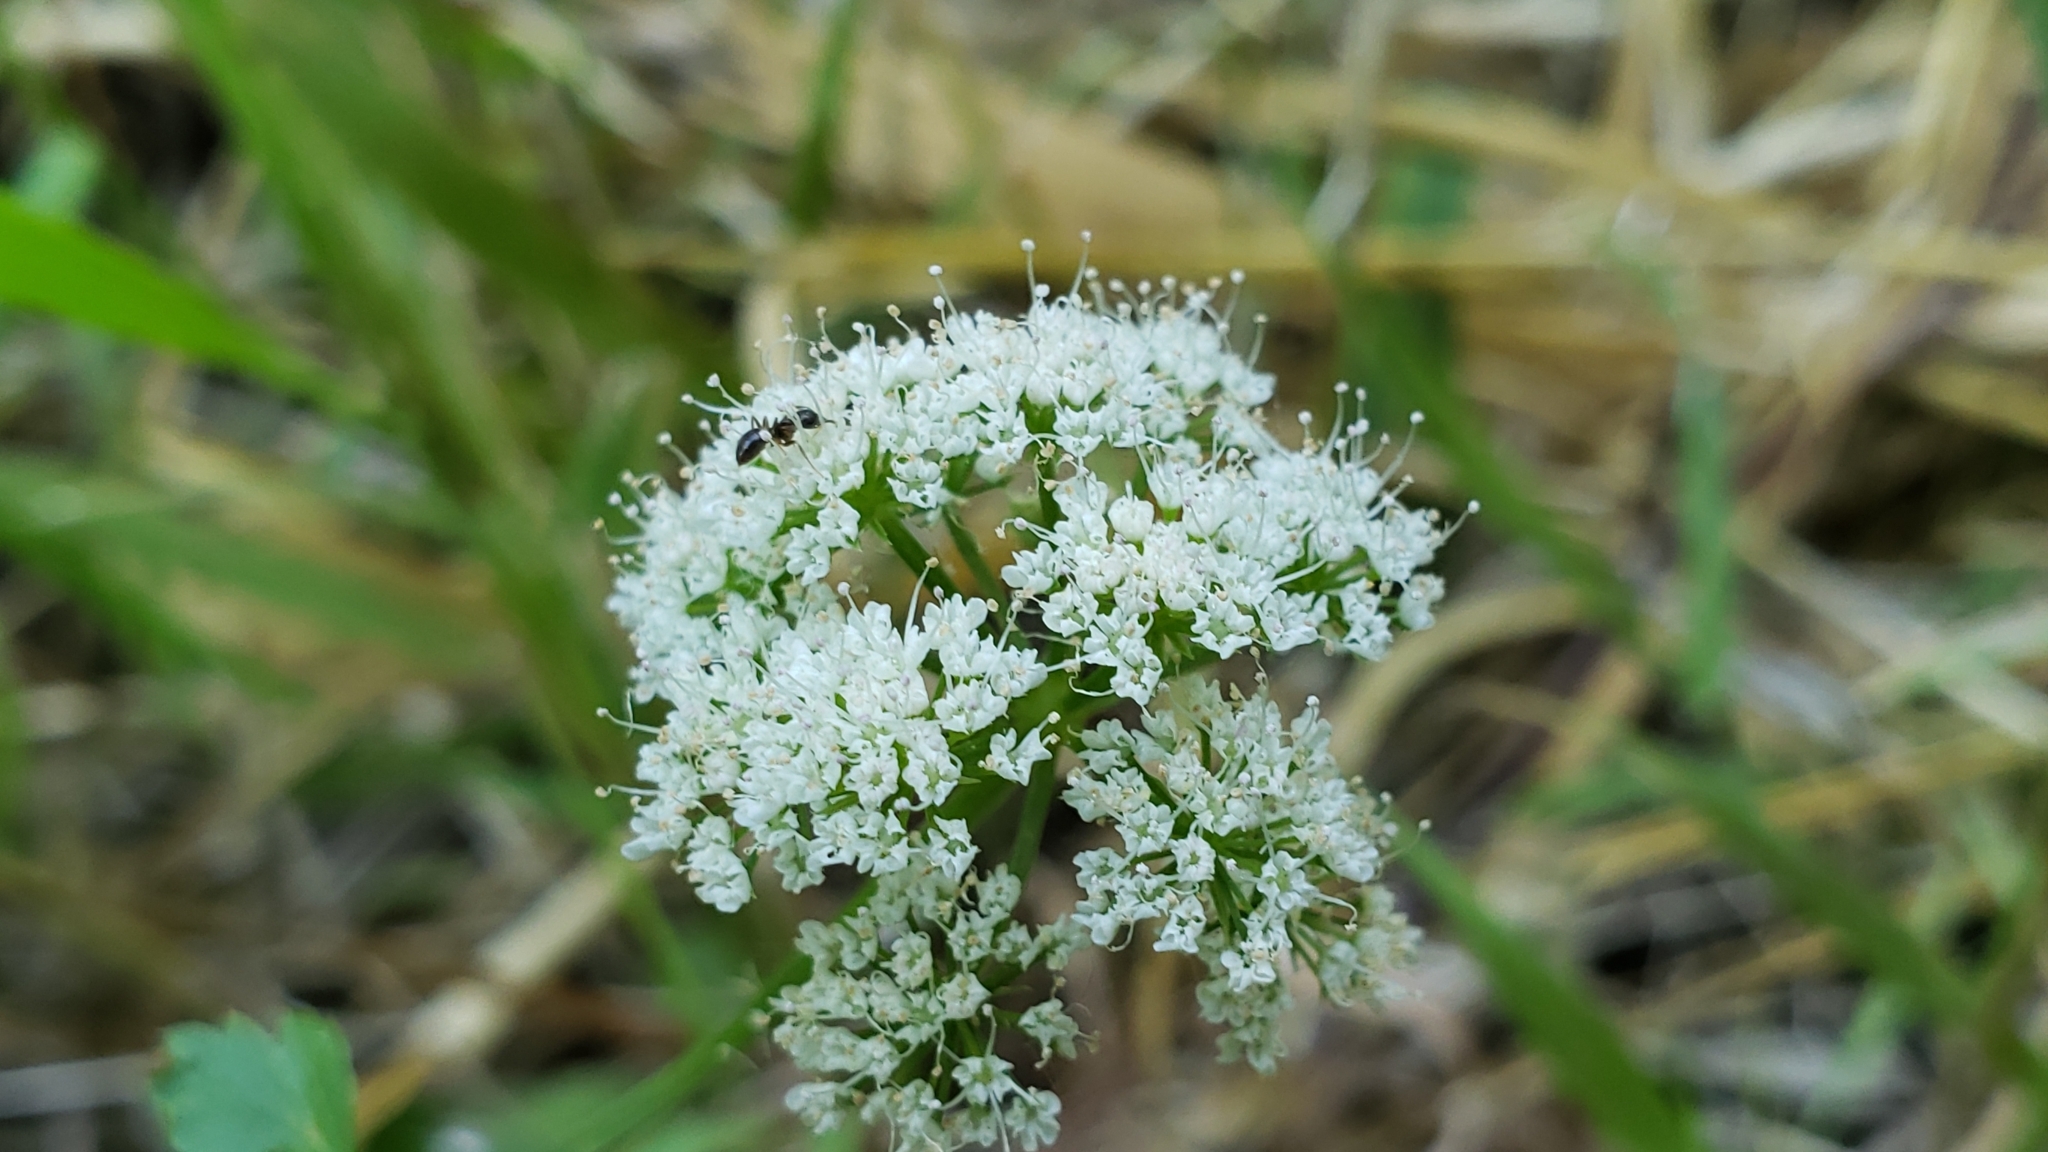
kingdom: Plantae
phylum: Tracheophyta
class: Magnoliopsida
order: Apiales
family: Apiaceae
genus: Oenanthe
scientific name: Oenanthe sarmentosa
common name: American water-parsley
